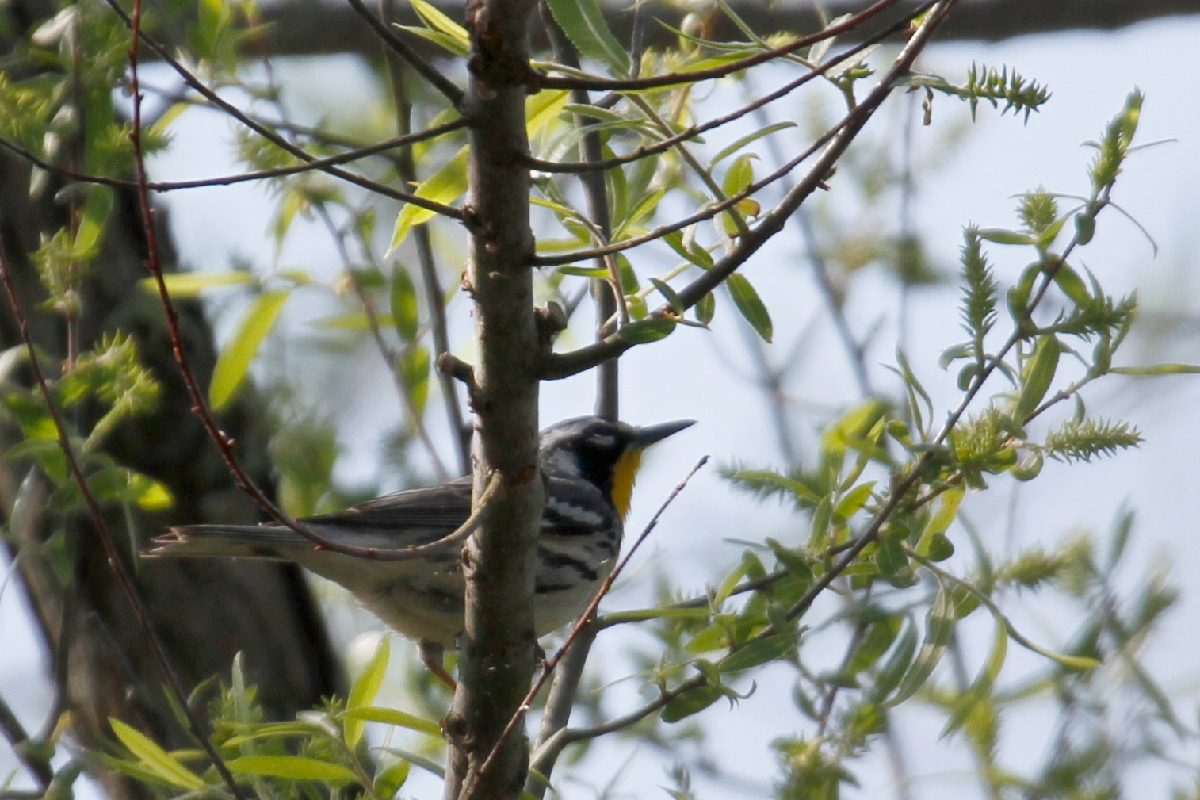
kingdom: Animalia
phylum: Chordata
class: Aves
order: Passeriformes
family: Parulidae
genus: Setophaga
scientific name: Setophaga dominica
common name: Yellow-throated warbler
